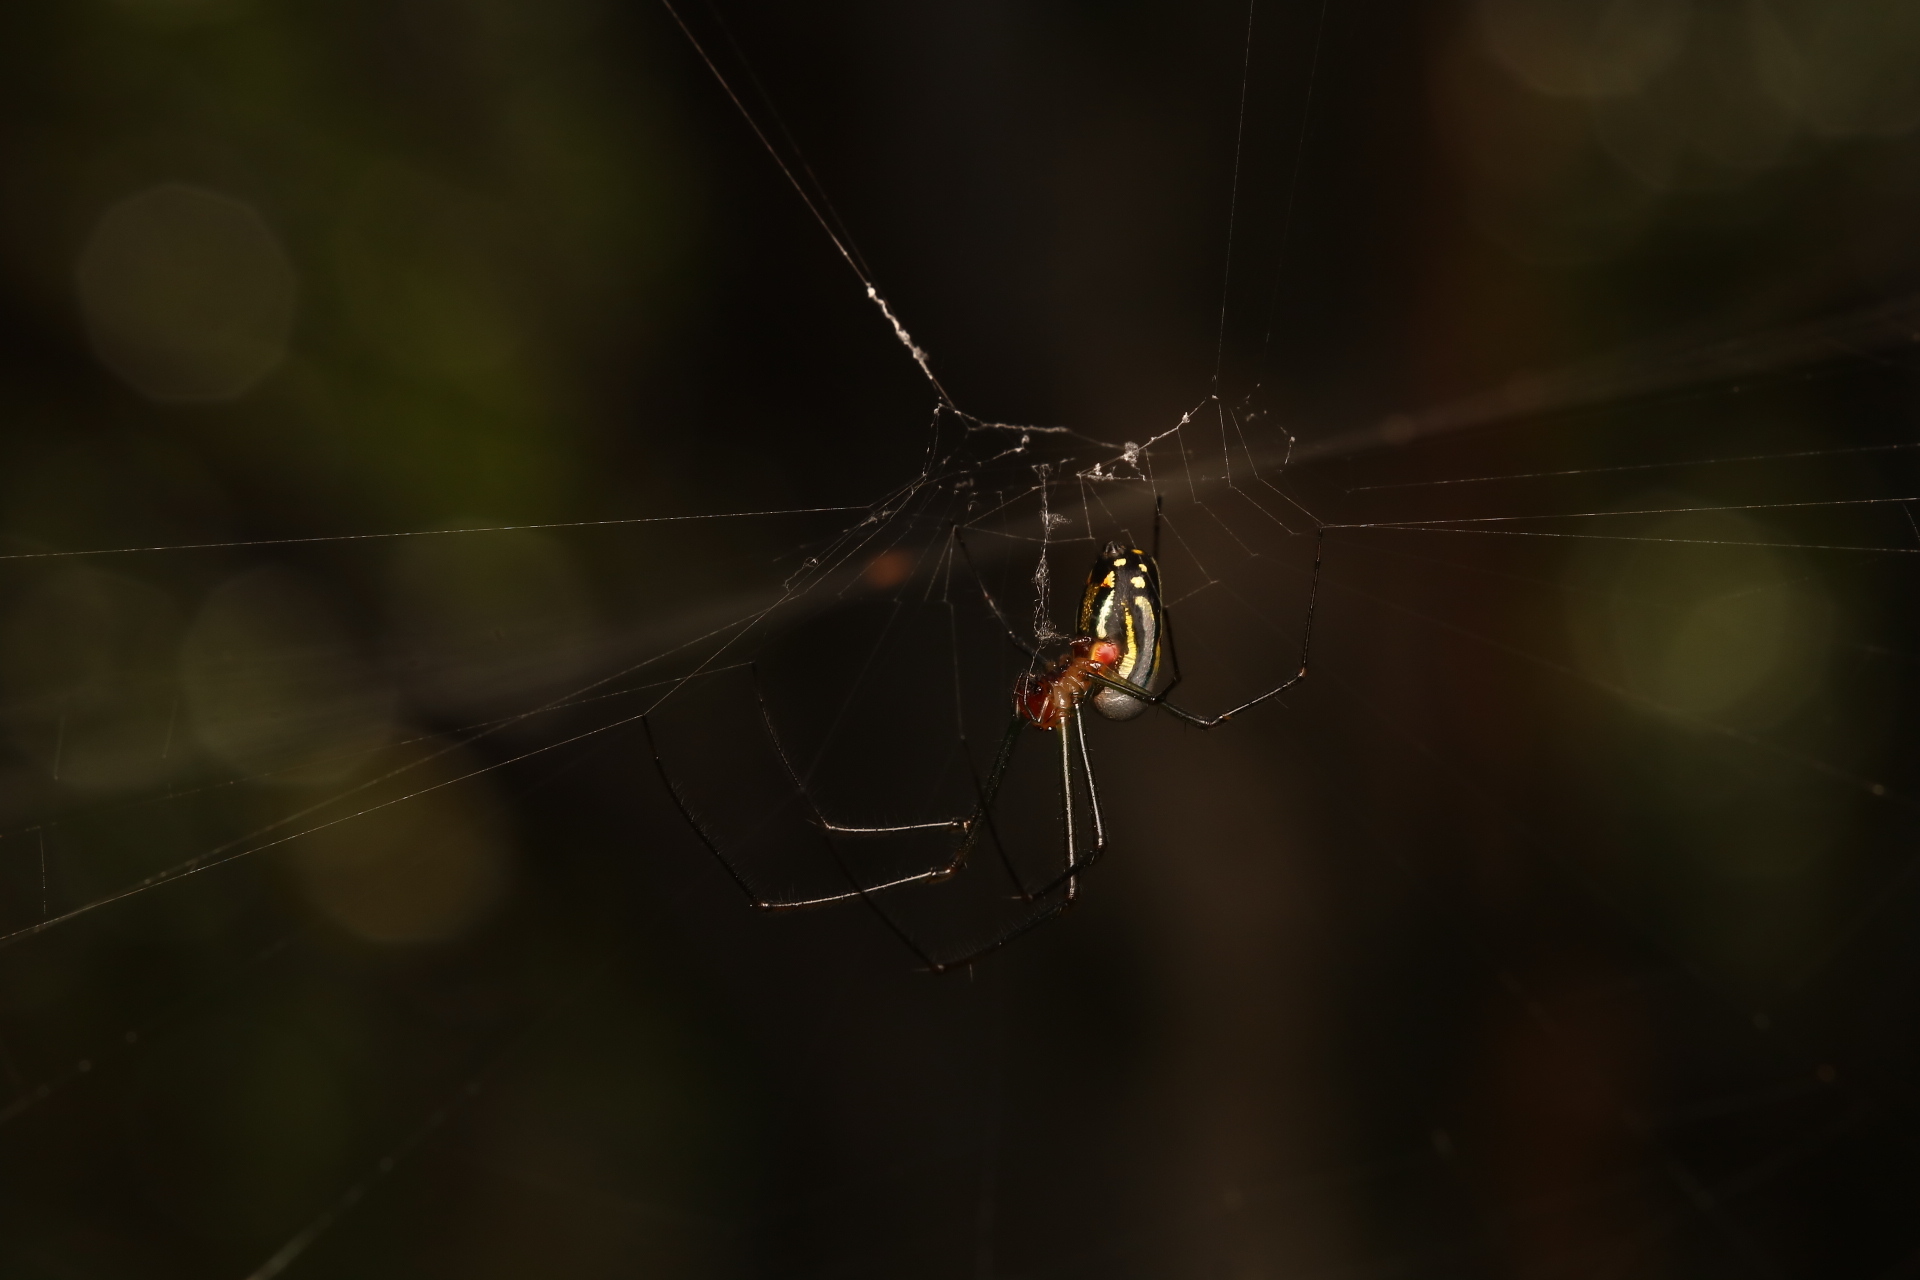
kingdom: Animalia
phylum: Arthropoda
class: Arachnida
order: Araneae
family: Tetragnathidae
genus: Leucauge
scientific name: Leucauge argyra
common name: Longjawed orb weavers
